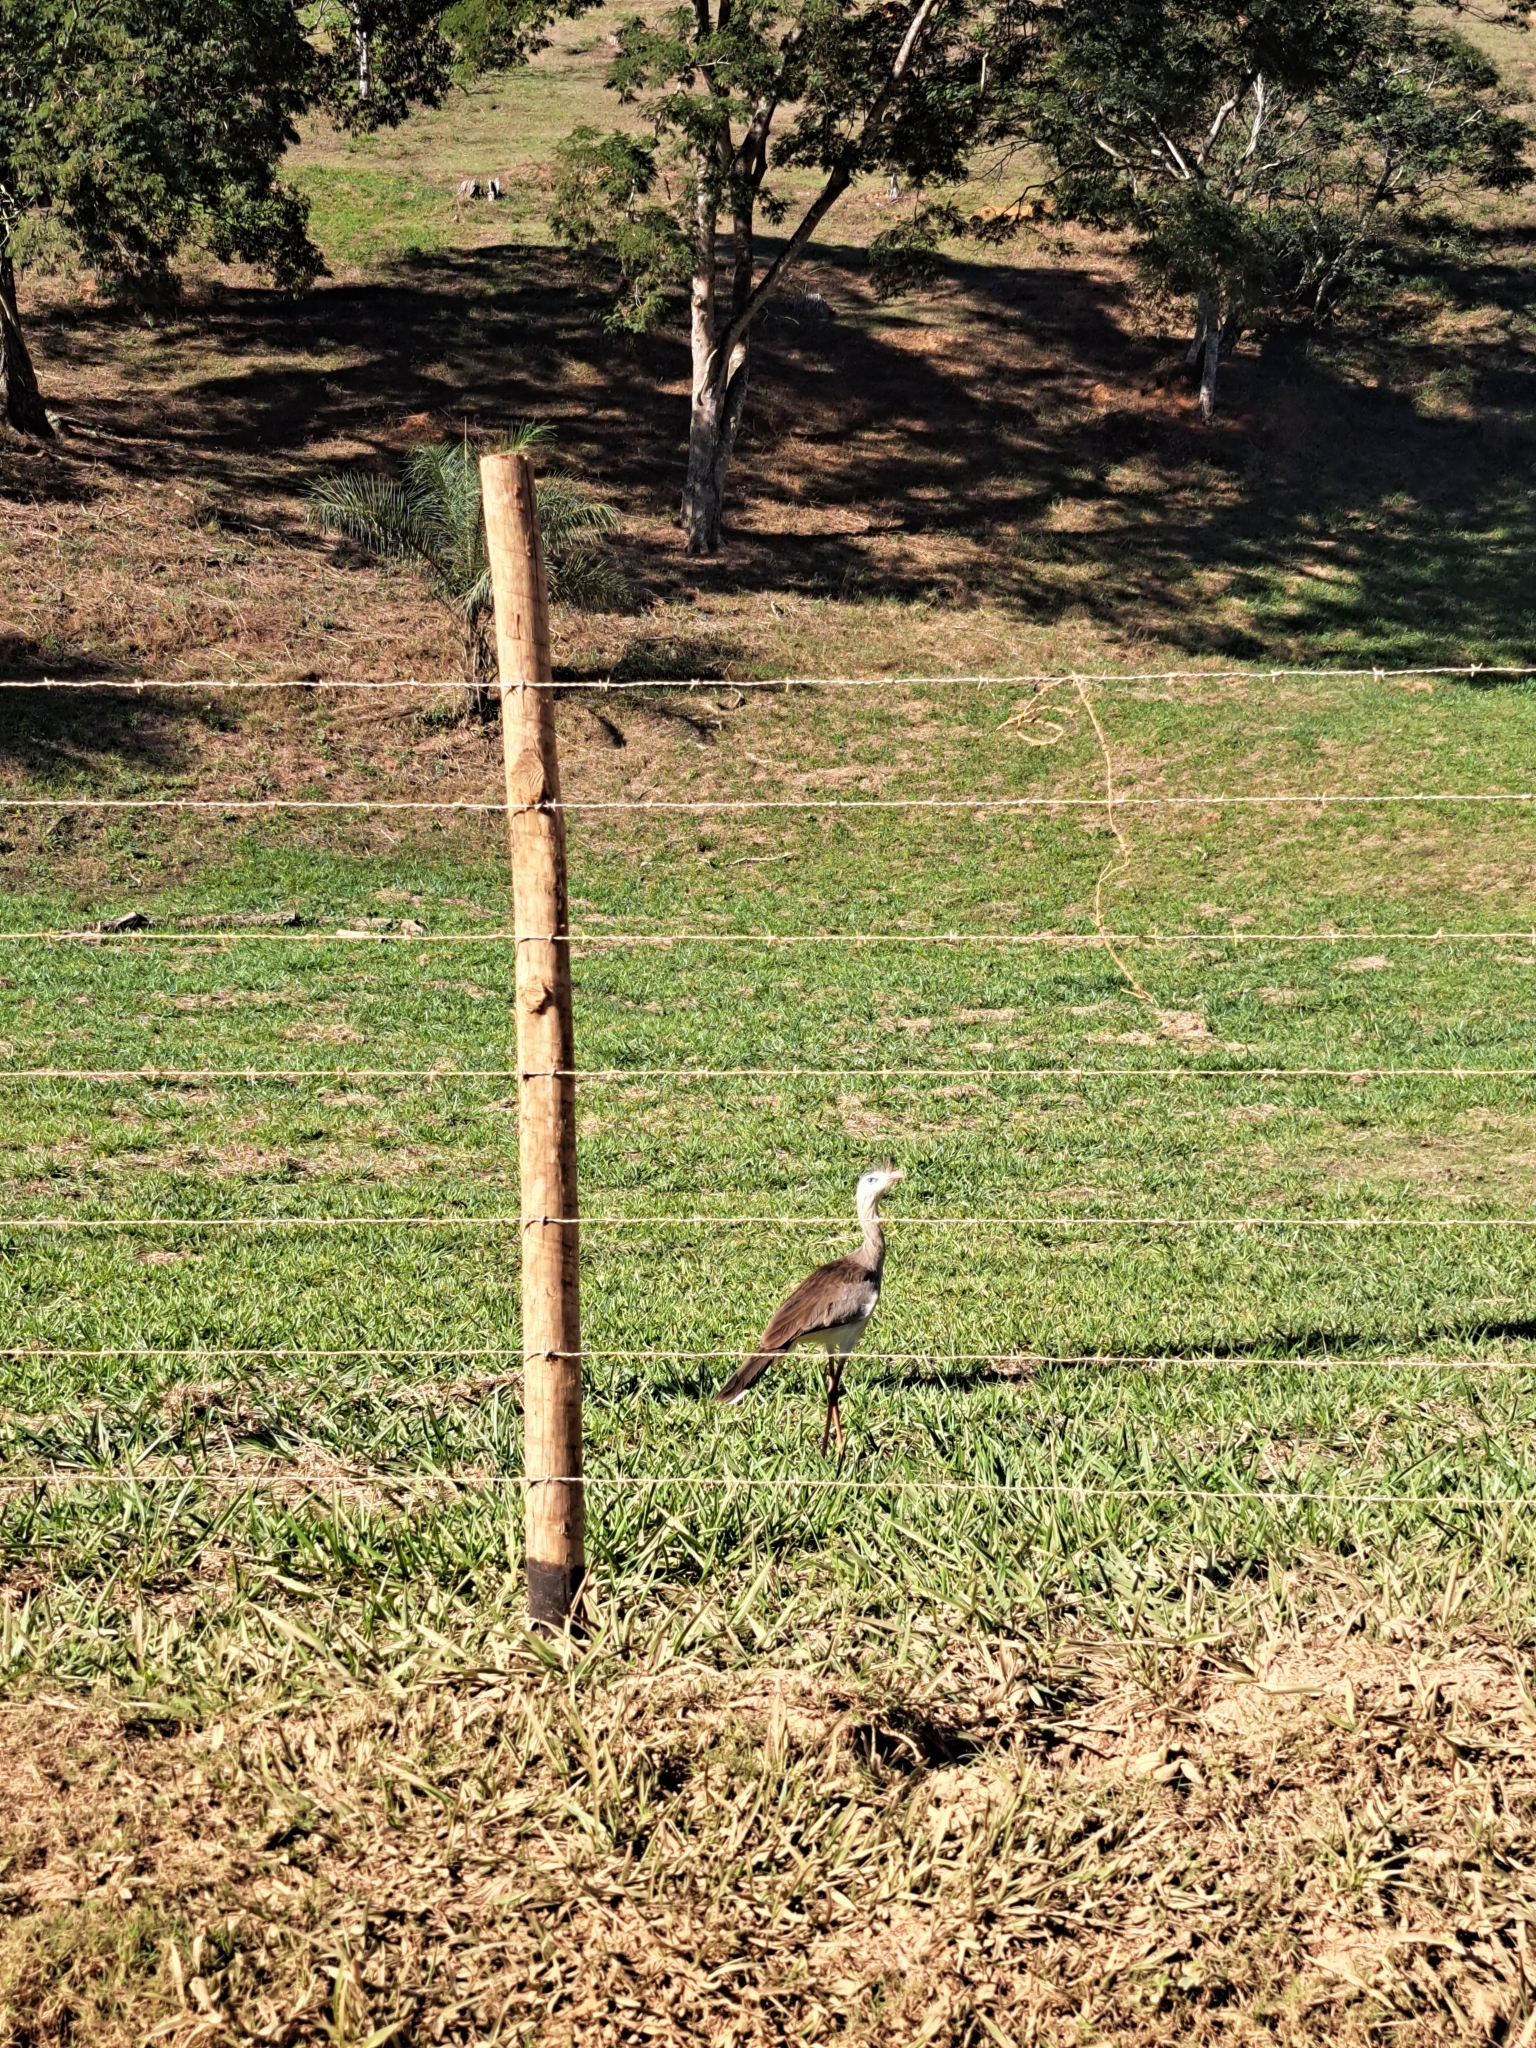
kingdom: Animalia
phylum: Chordata
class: Aves
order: Cariamiformes
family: Cariamidae
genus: Cariama
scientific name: Cariama cristata
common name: Red-legged seriema
